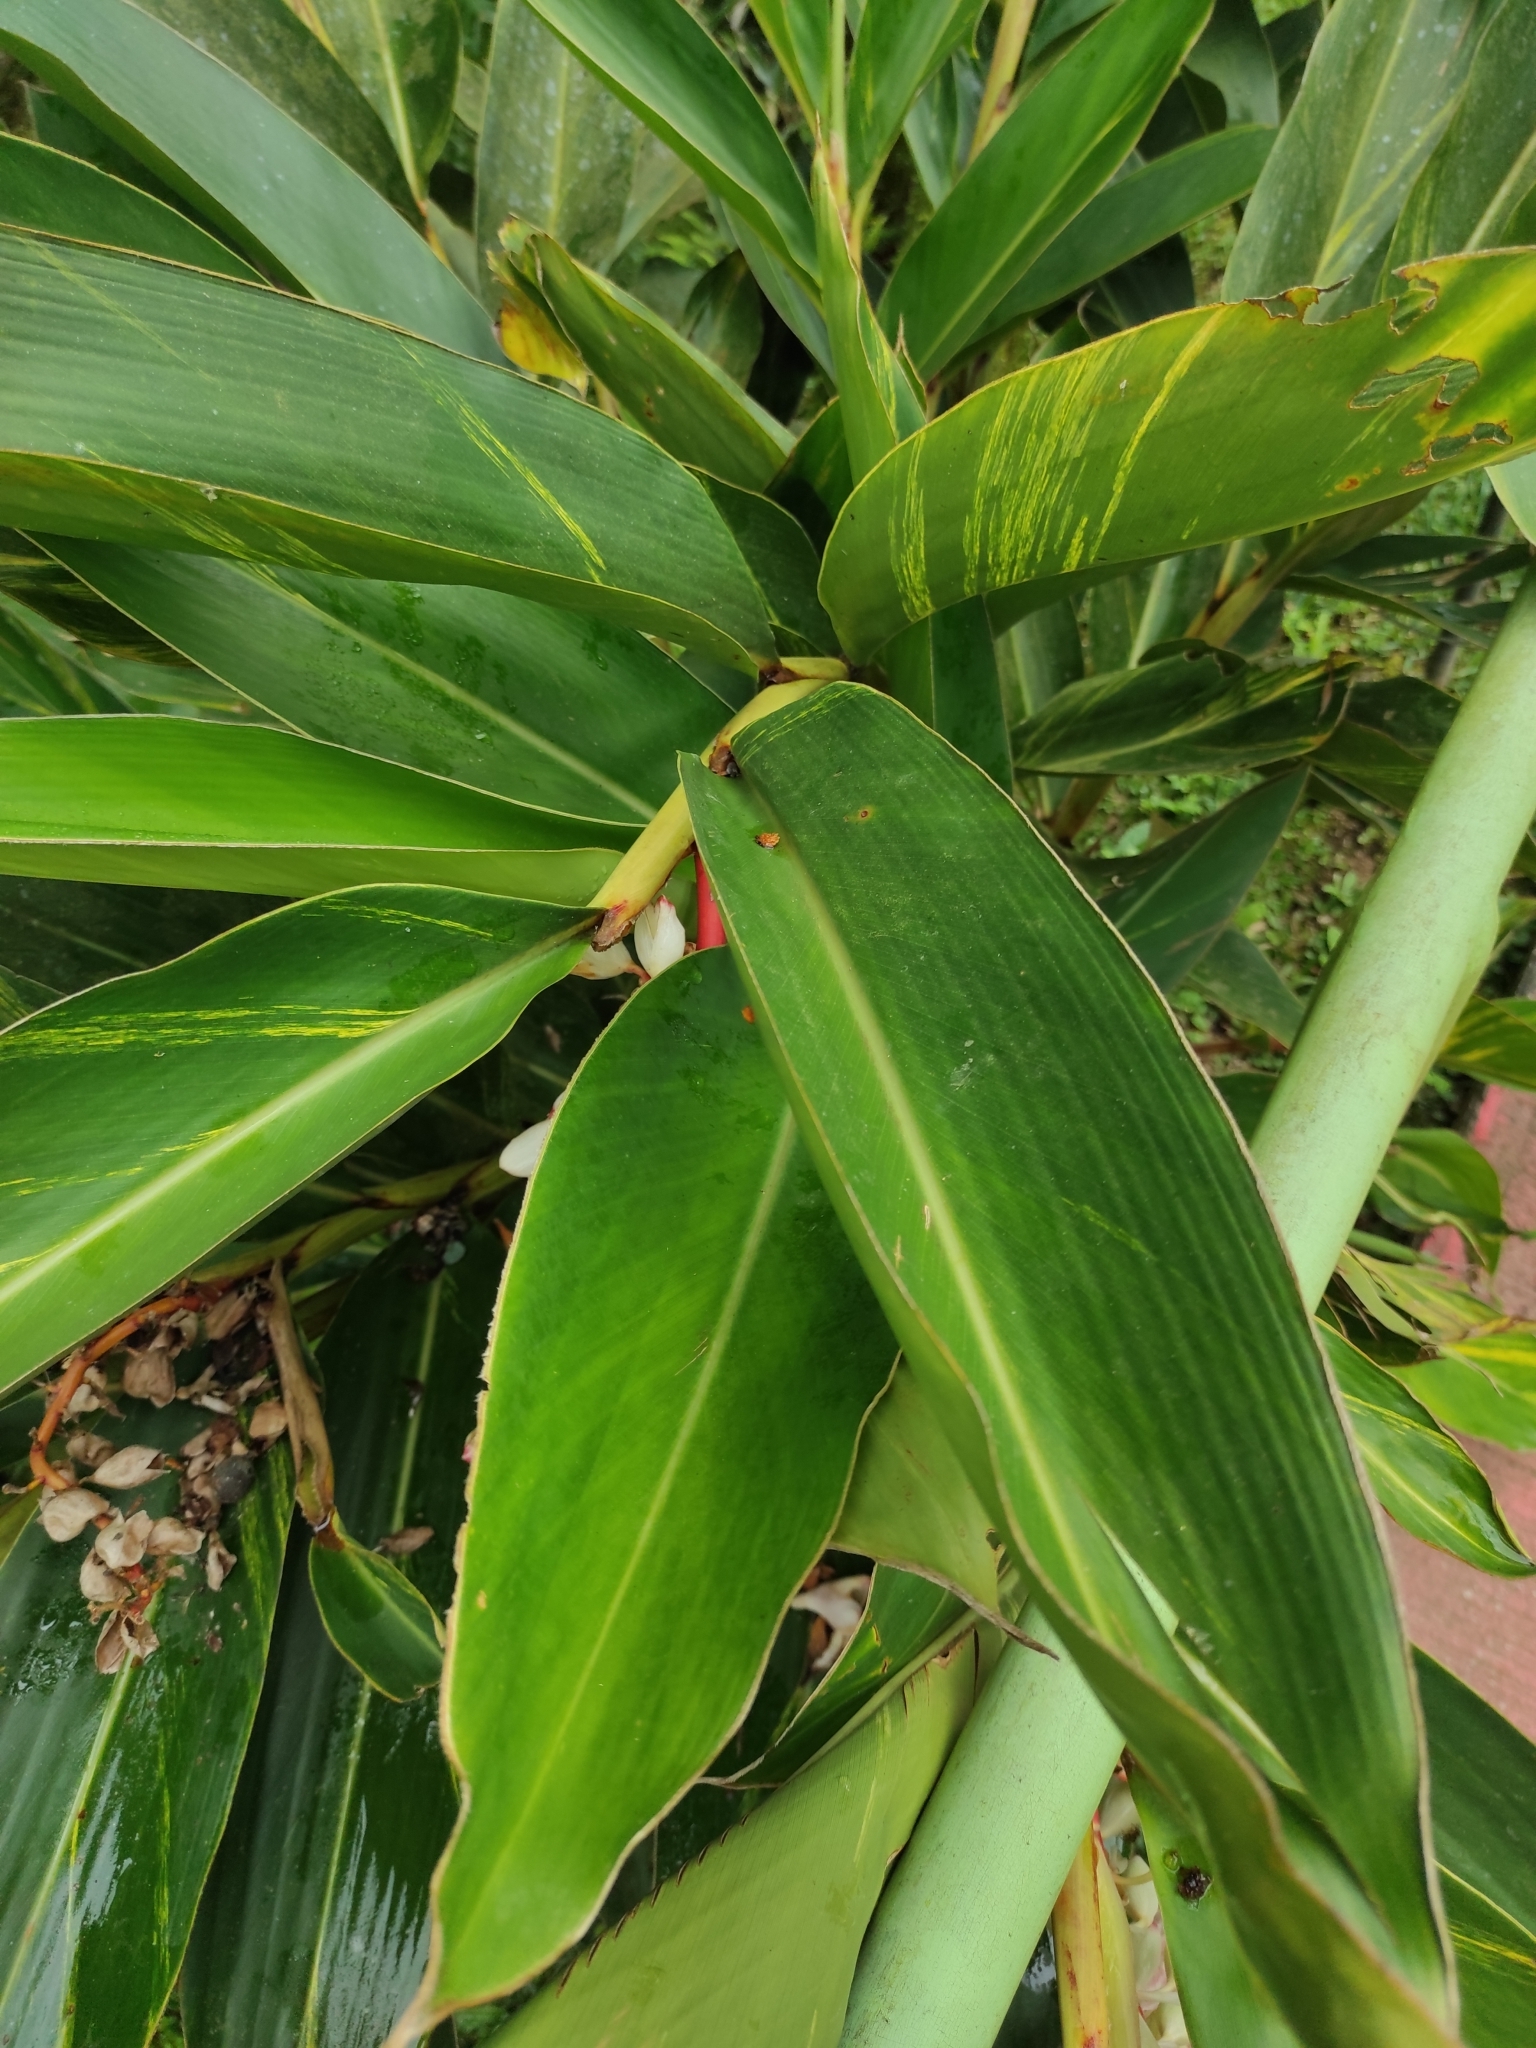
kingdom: Plantae
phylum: Tracheophyta
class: Liliopsida
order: Zingiberales
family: Zingiberaceae
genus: Alpinia
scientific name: Alpinia zerumbet
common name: Shellplant
